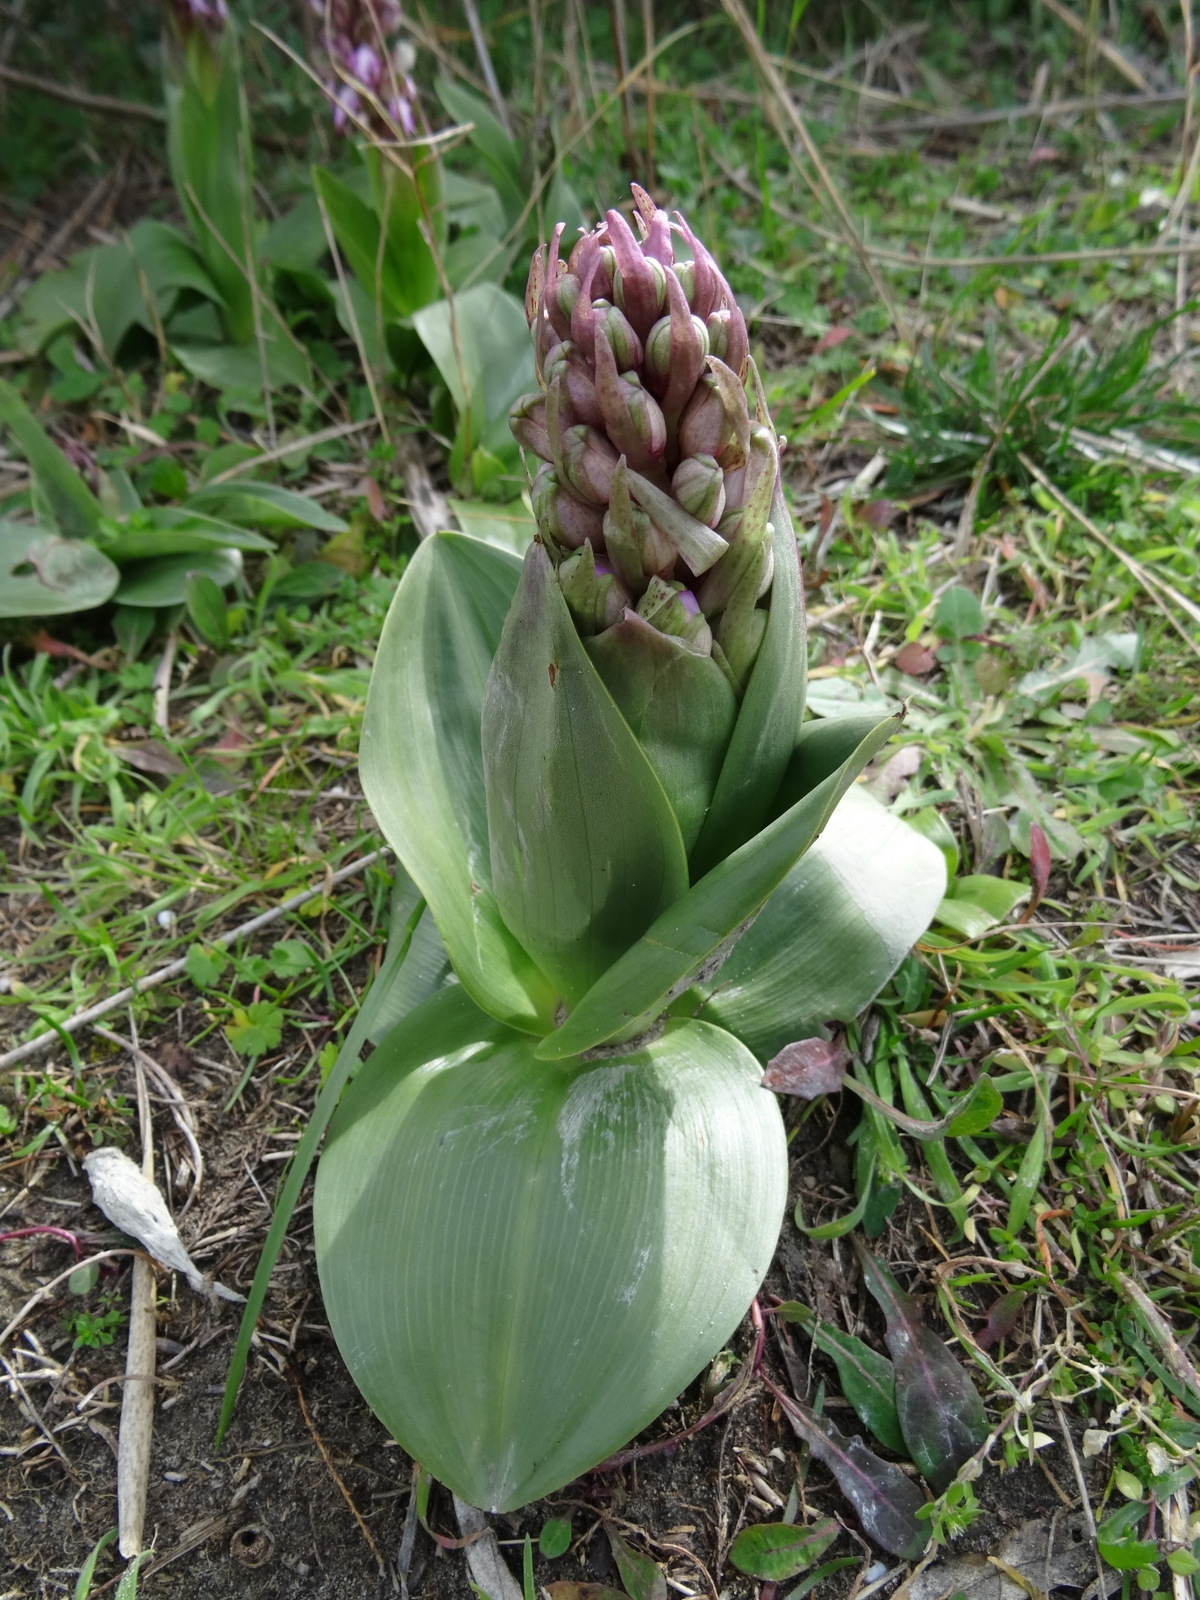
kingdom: Plantae
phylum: Tracheophyta
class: Liliopsida
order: Asparagales
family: Orchidaceae
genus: Himantoglossum
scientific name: Himantoglossum robertianum
